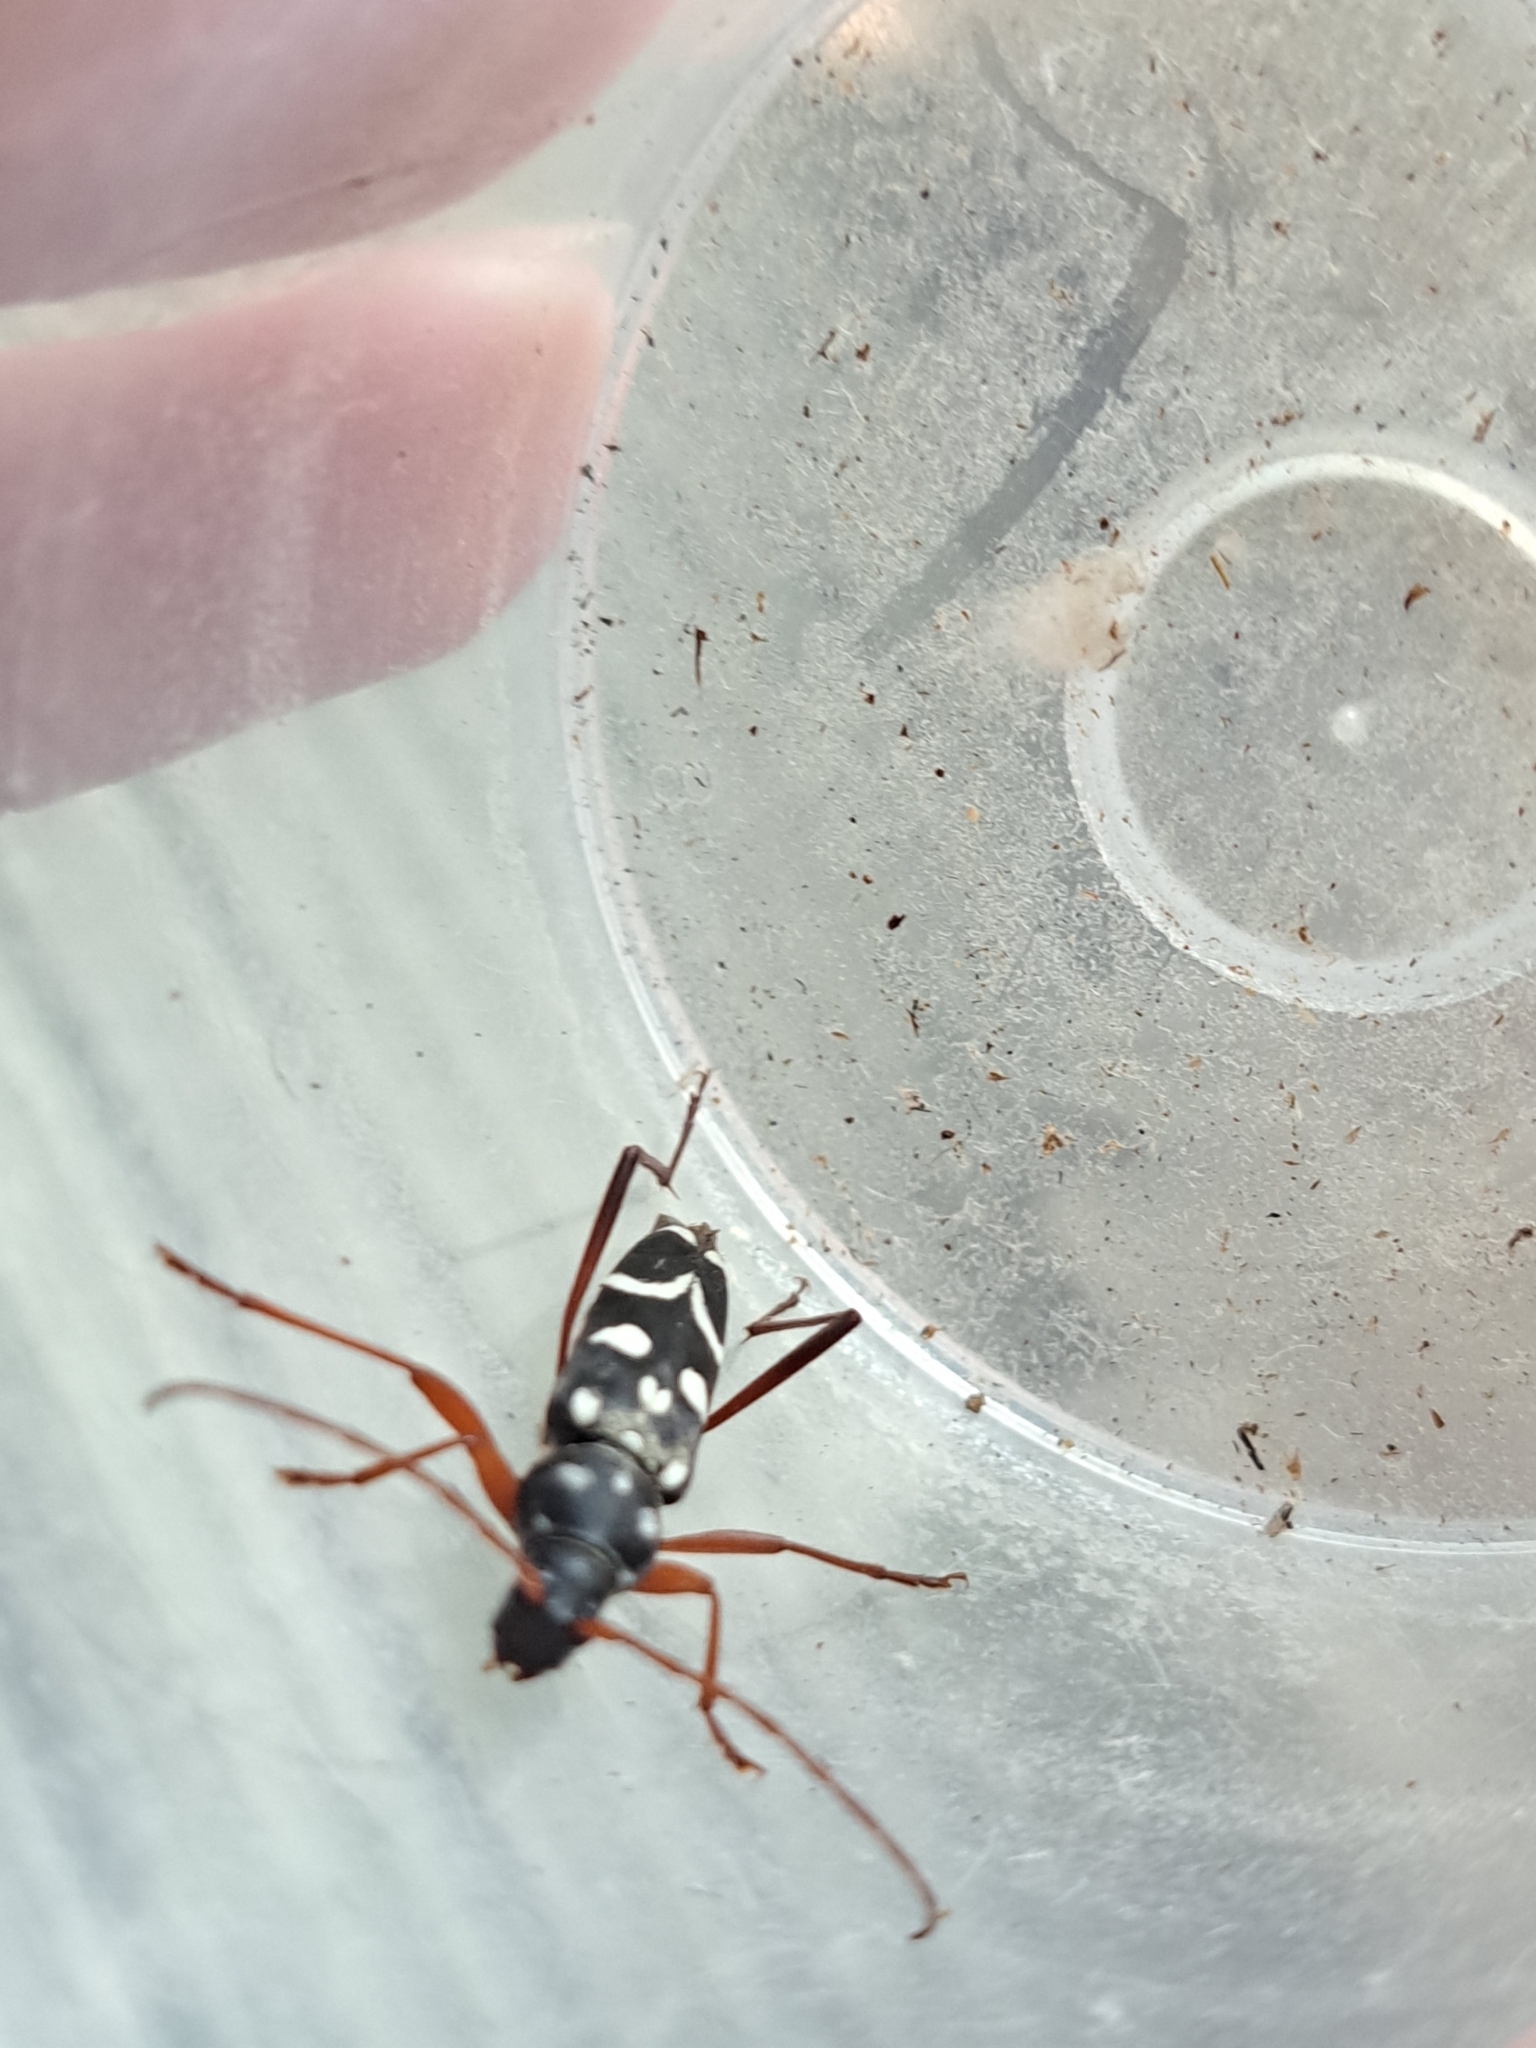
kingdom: Animalia
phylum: Arthropoda
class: Insecta
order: Coleoptera
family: Cerambycidae
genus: Isotomus
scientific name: Isotomus speciosus
